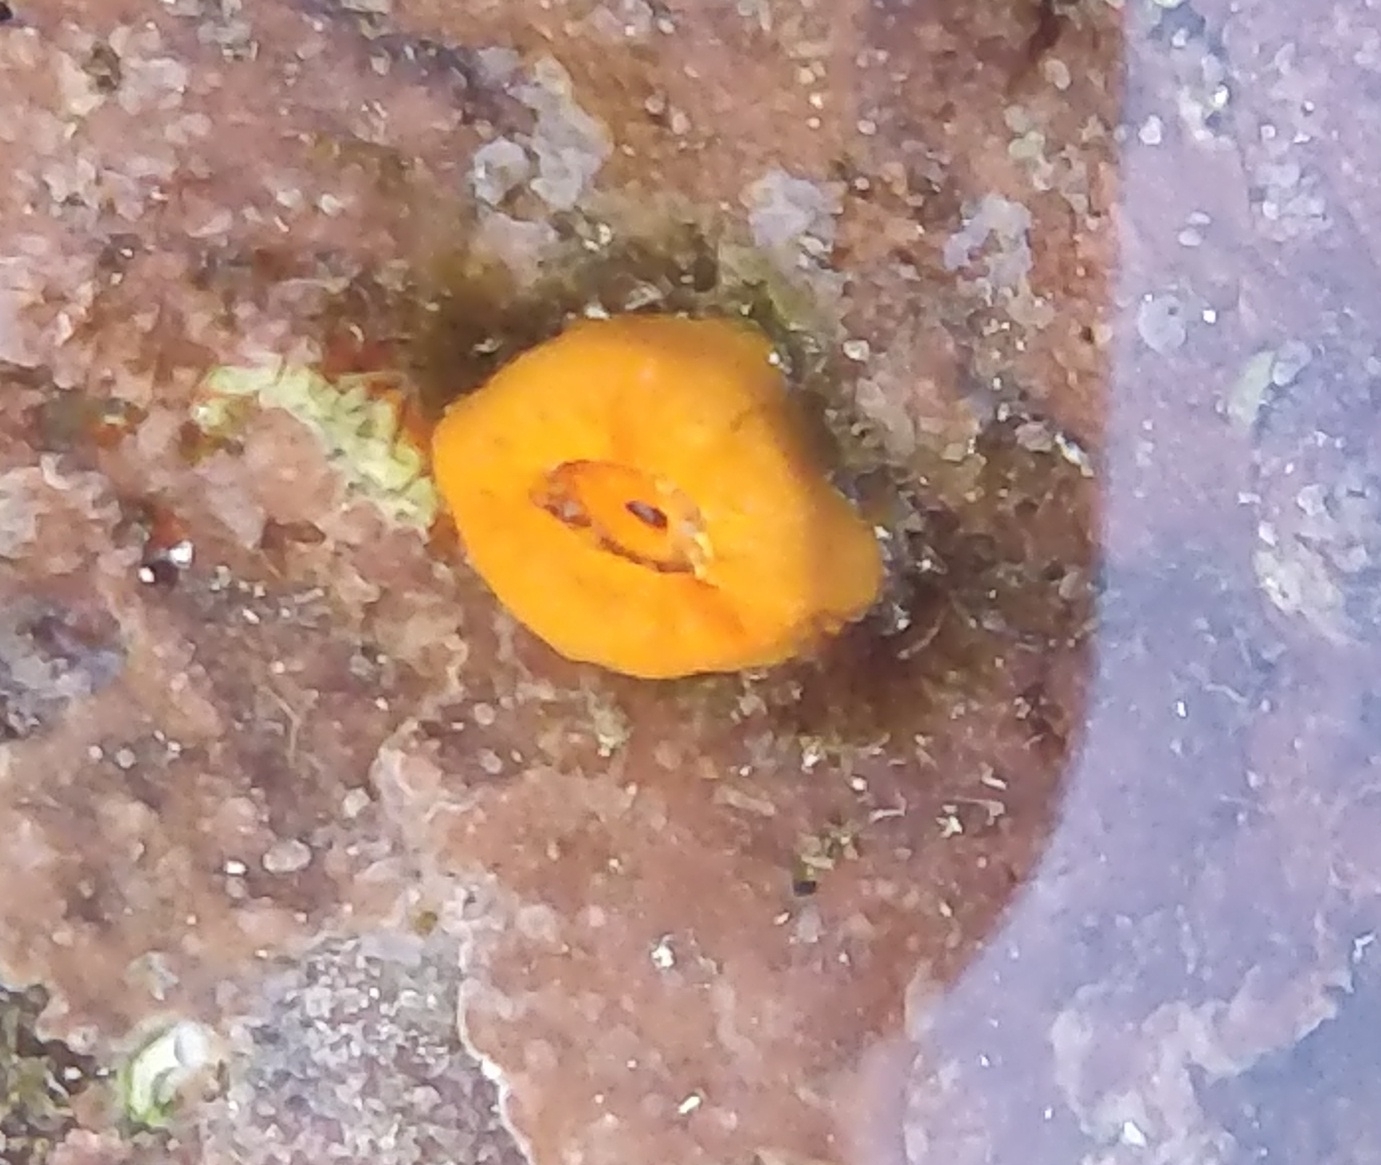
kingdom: Animalia
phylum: Cnidaria
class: Anthozoa
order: Scleractinia
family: Dendrophylliidae
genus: Balanophyllia
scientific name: Balanophyllia regia
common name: Golden star coral
